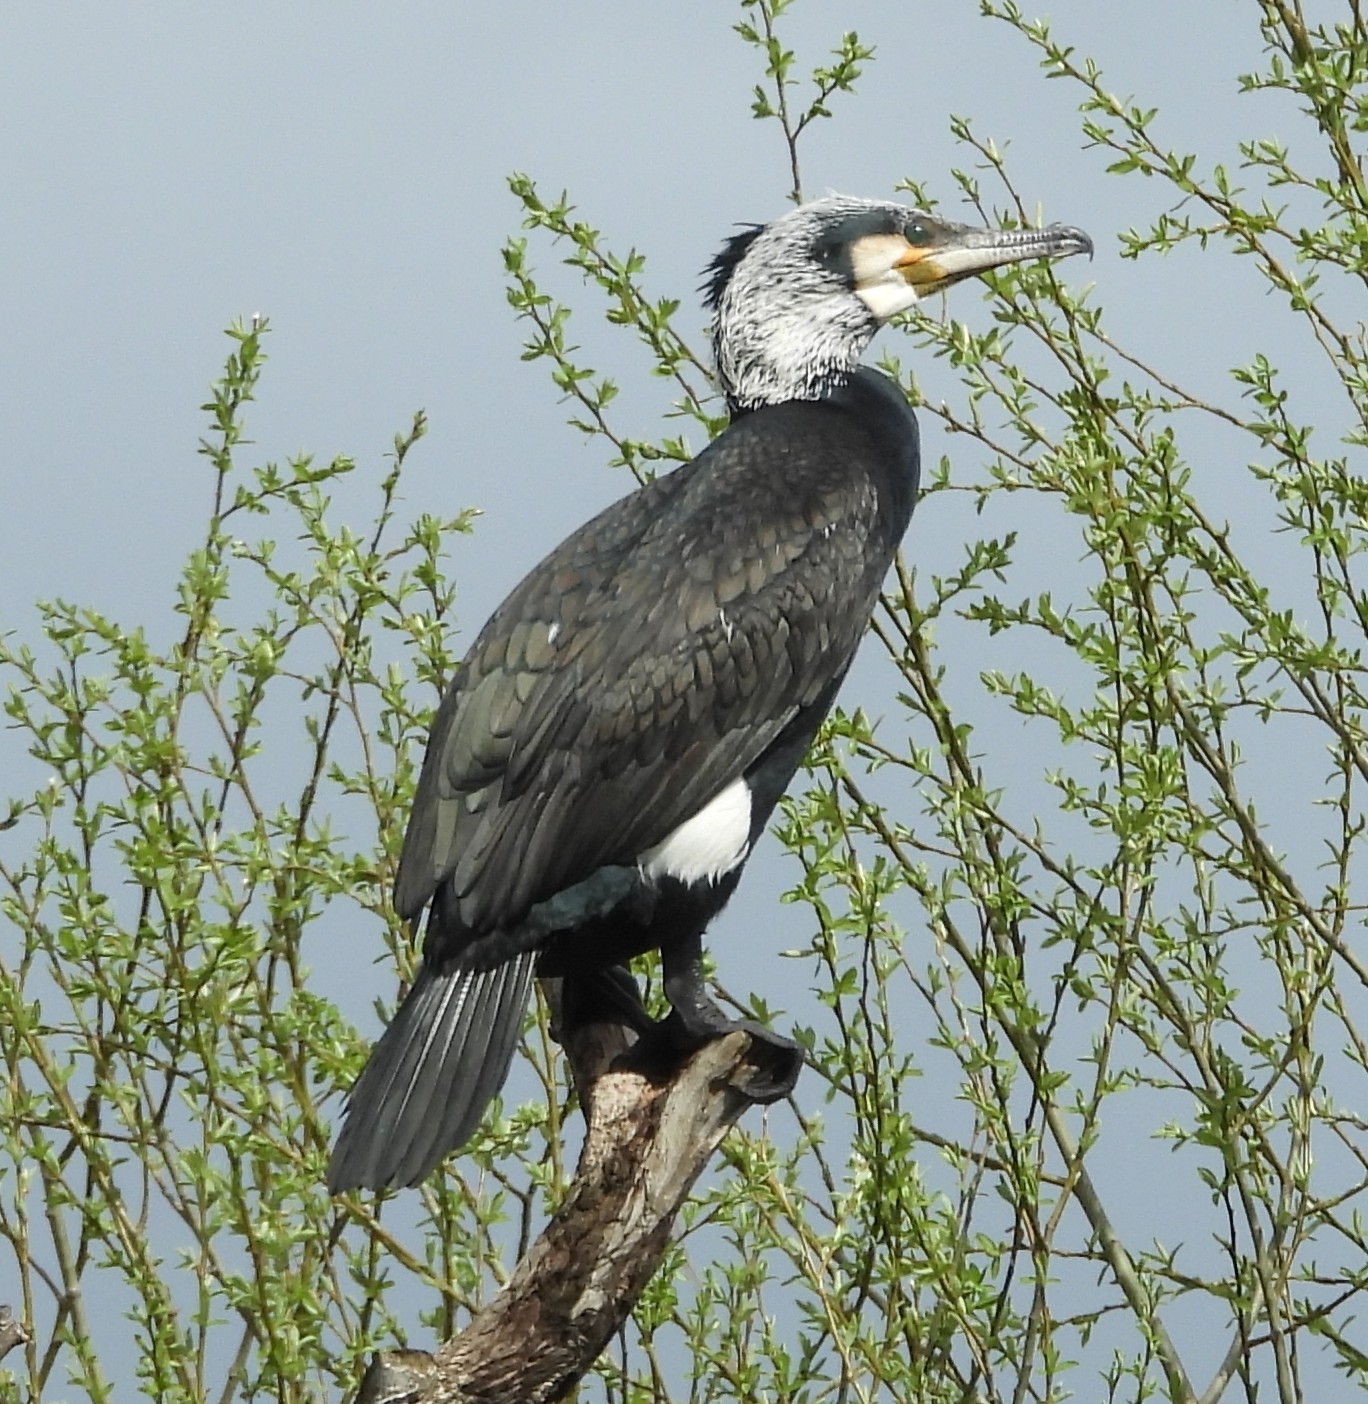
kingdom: Animalia
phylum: Chordata
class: Aves
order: Suliformes
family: Phalacrocoracidae
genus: Phalacrocorax
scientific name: Phalacrocorax carbo
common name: Great cormorant
